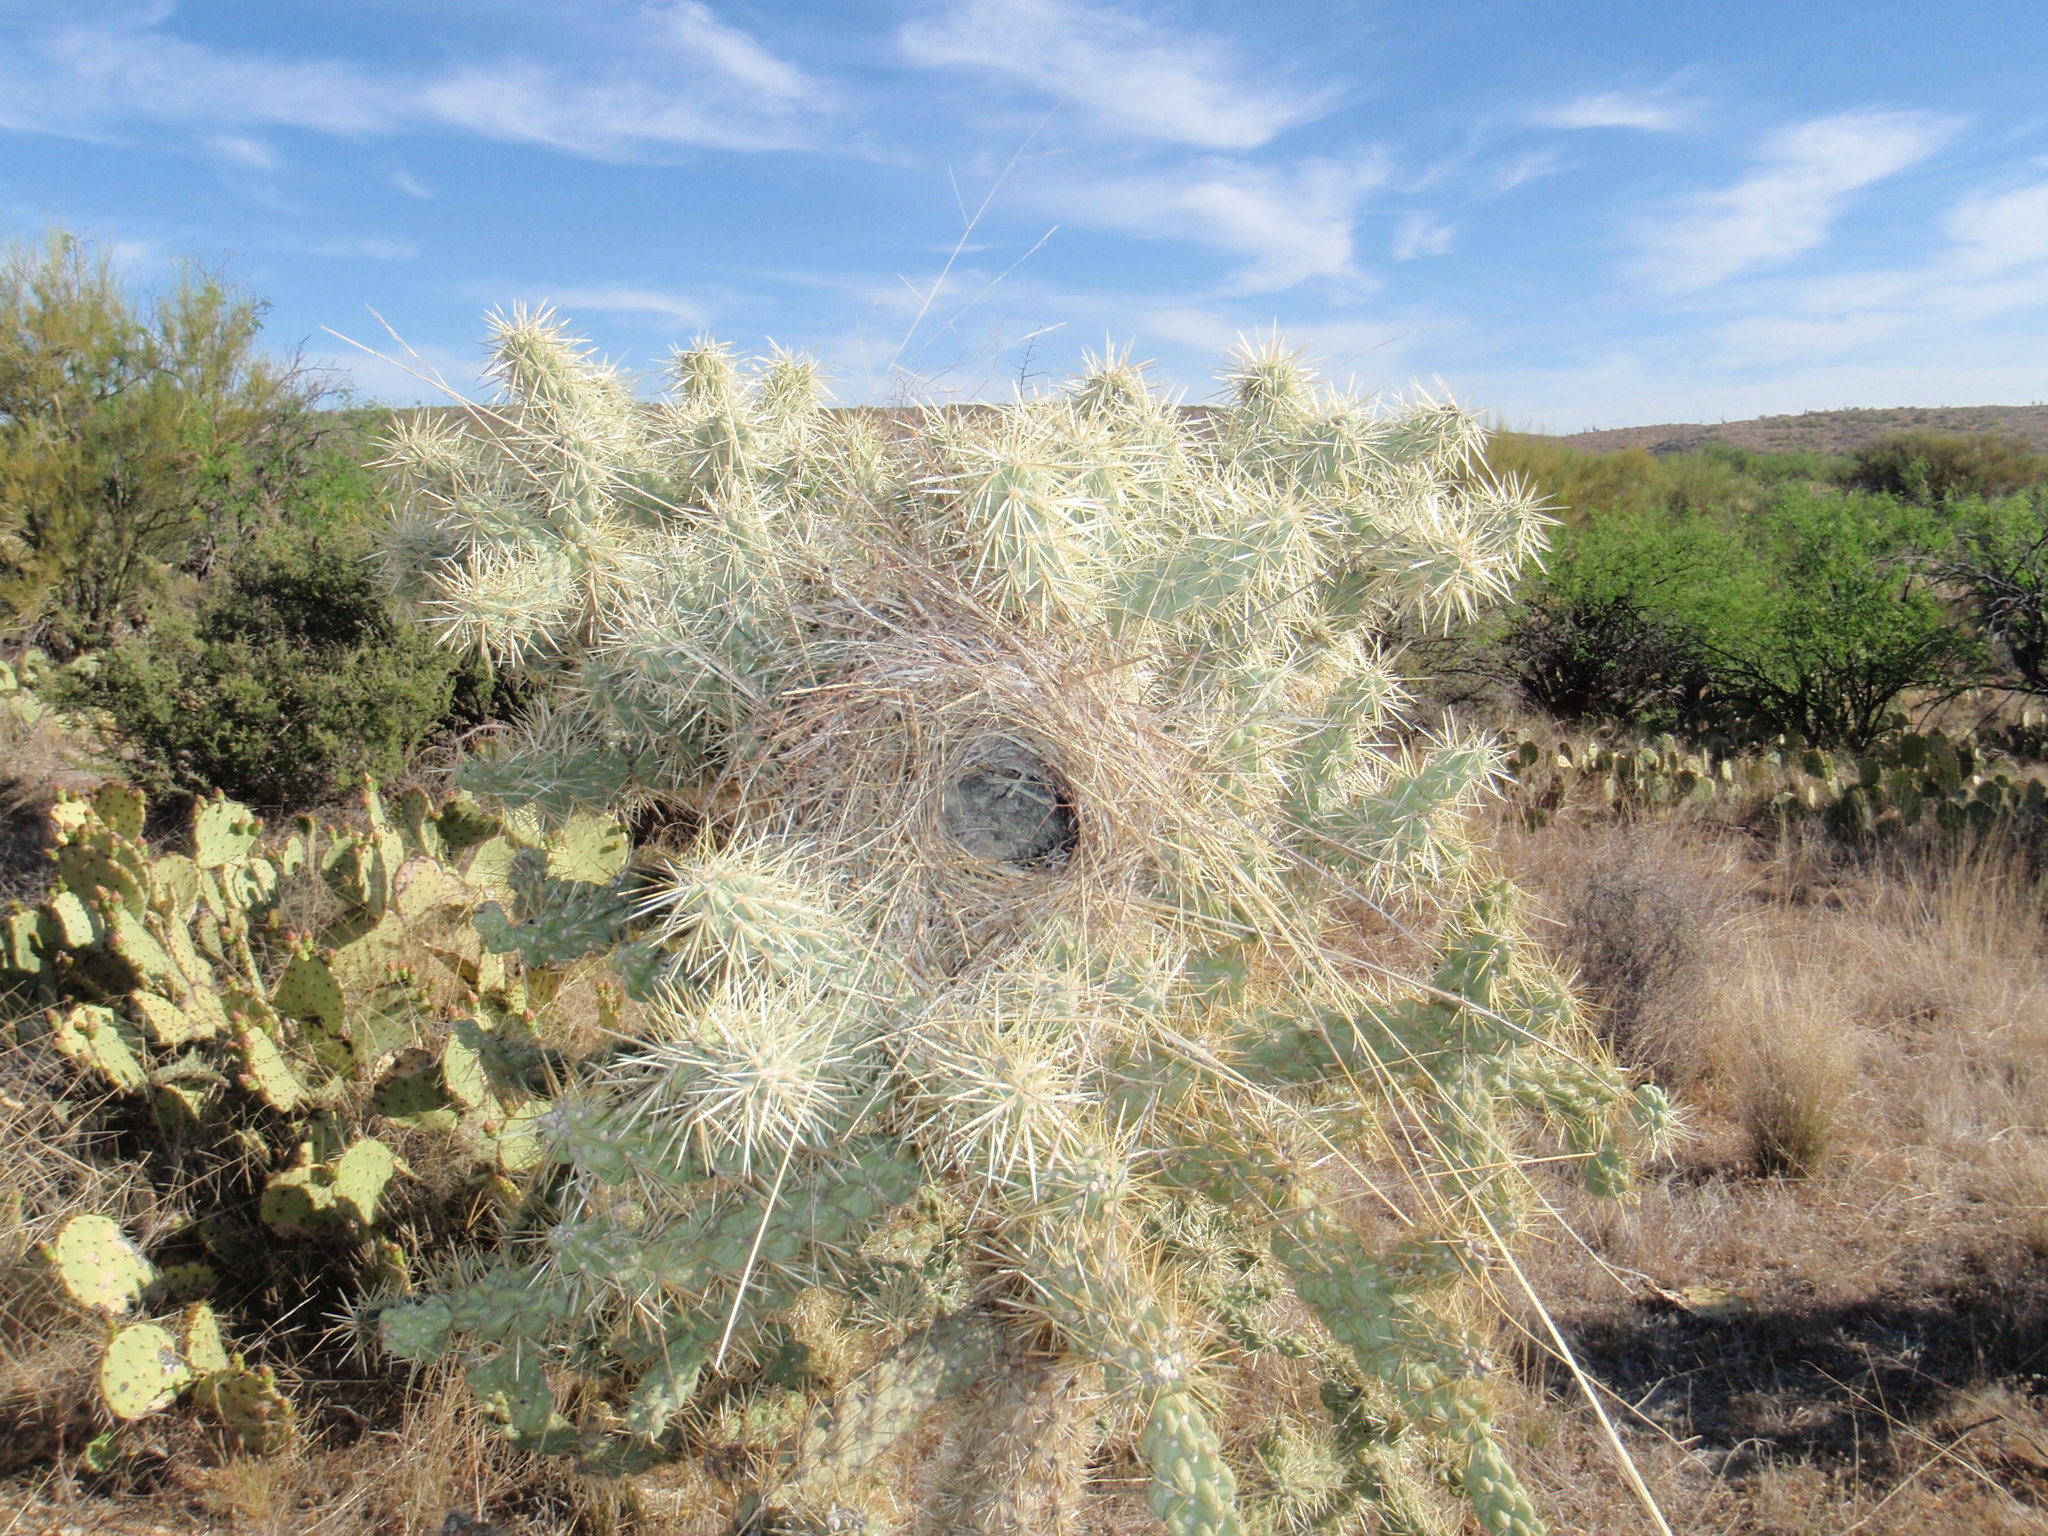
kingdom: Animalia
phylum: Chordata
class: Aves
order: Passeriformes
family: Troglodytidae
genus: Campylorhynchus
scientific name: Campylorhynchus brunneicapillus
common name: Cactus wren
